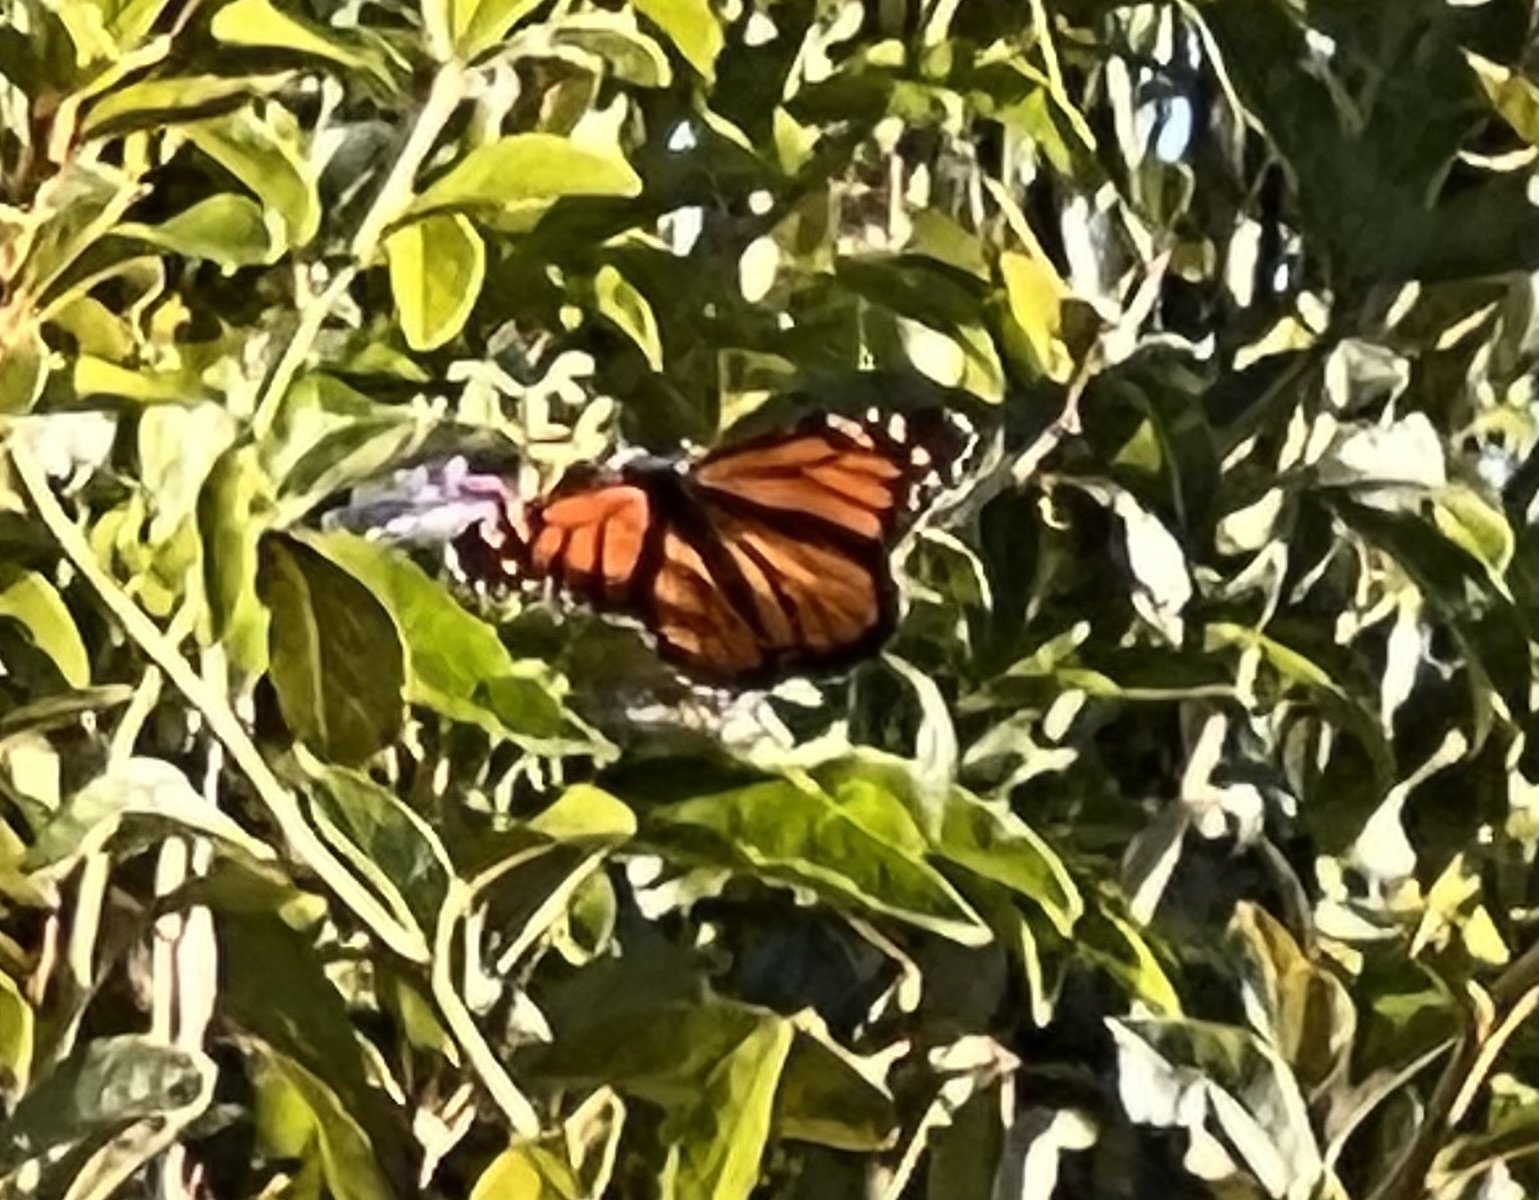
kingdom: Animalia
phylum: Arthropoda
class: Insecta
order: Lepidoptera
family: Nymphalidae
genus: Danaus
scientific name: Danaus plexippus
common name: Monarch
